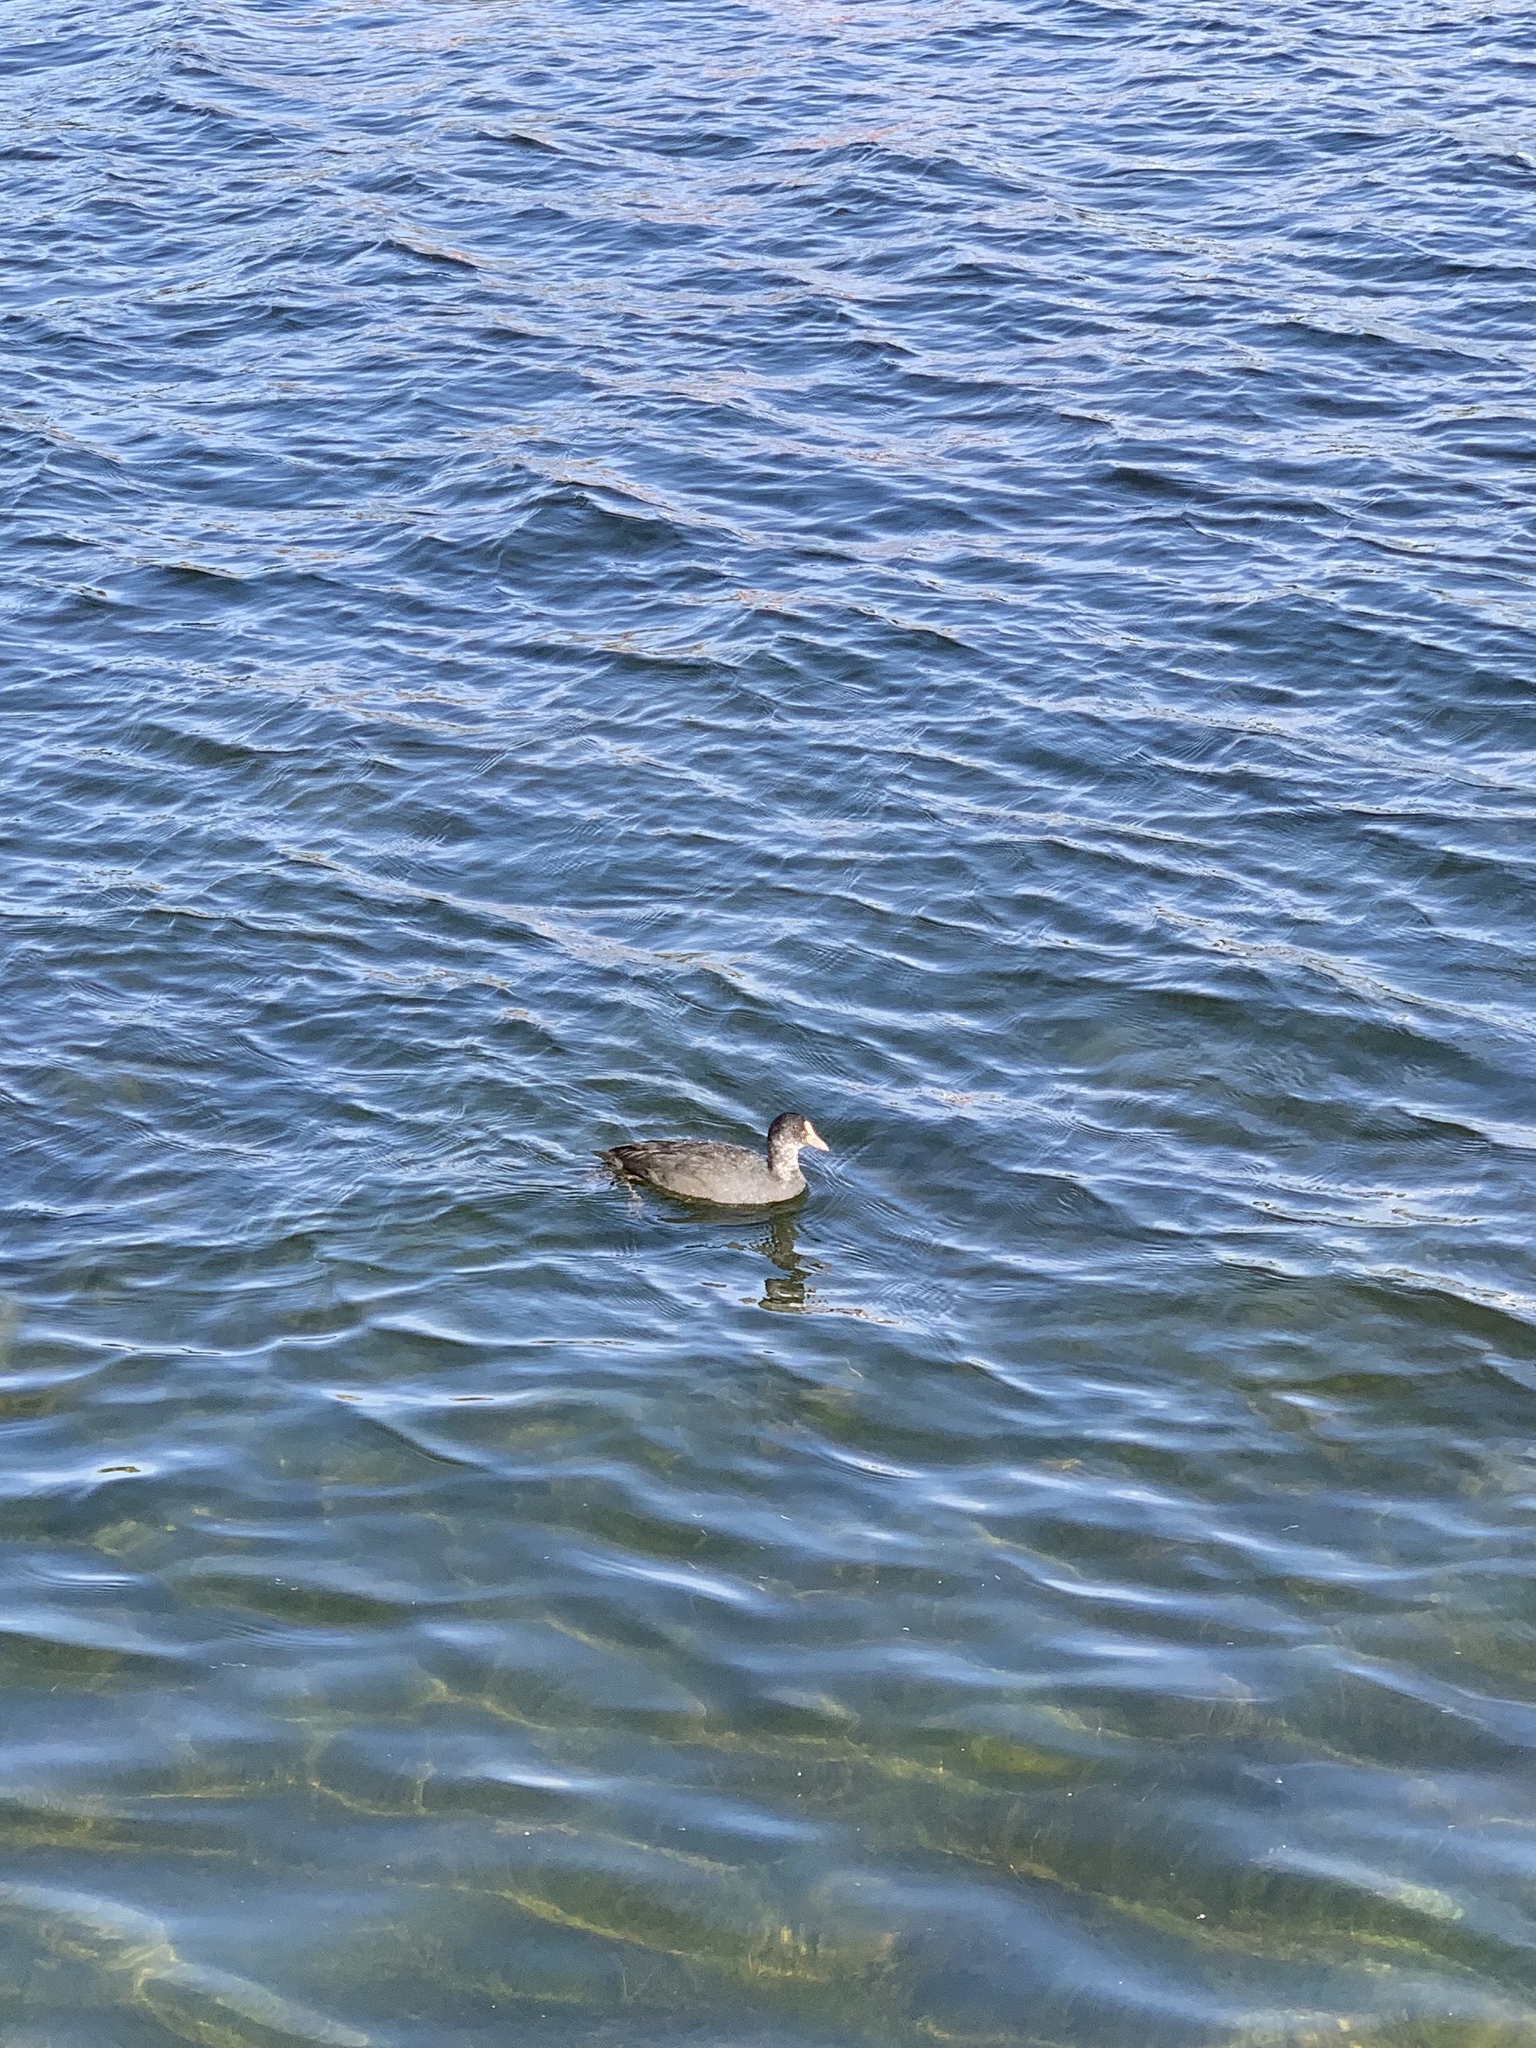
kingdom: Animalia
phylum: Chordata
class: Aves
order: Gruiformes
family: Rallidae
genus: Fulica
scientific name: Fulica atra
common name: Eurasian coot
